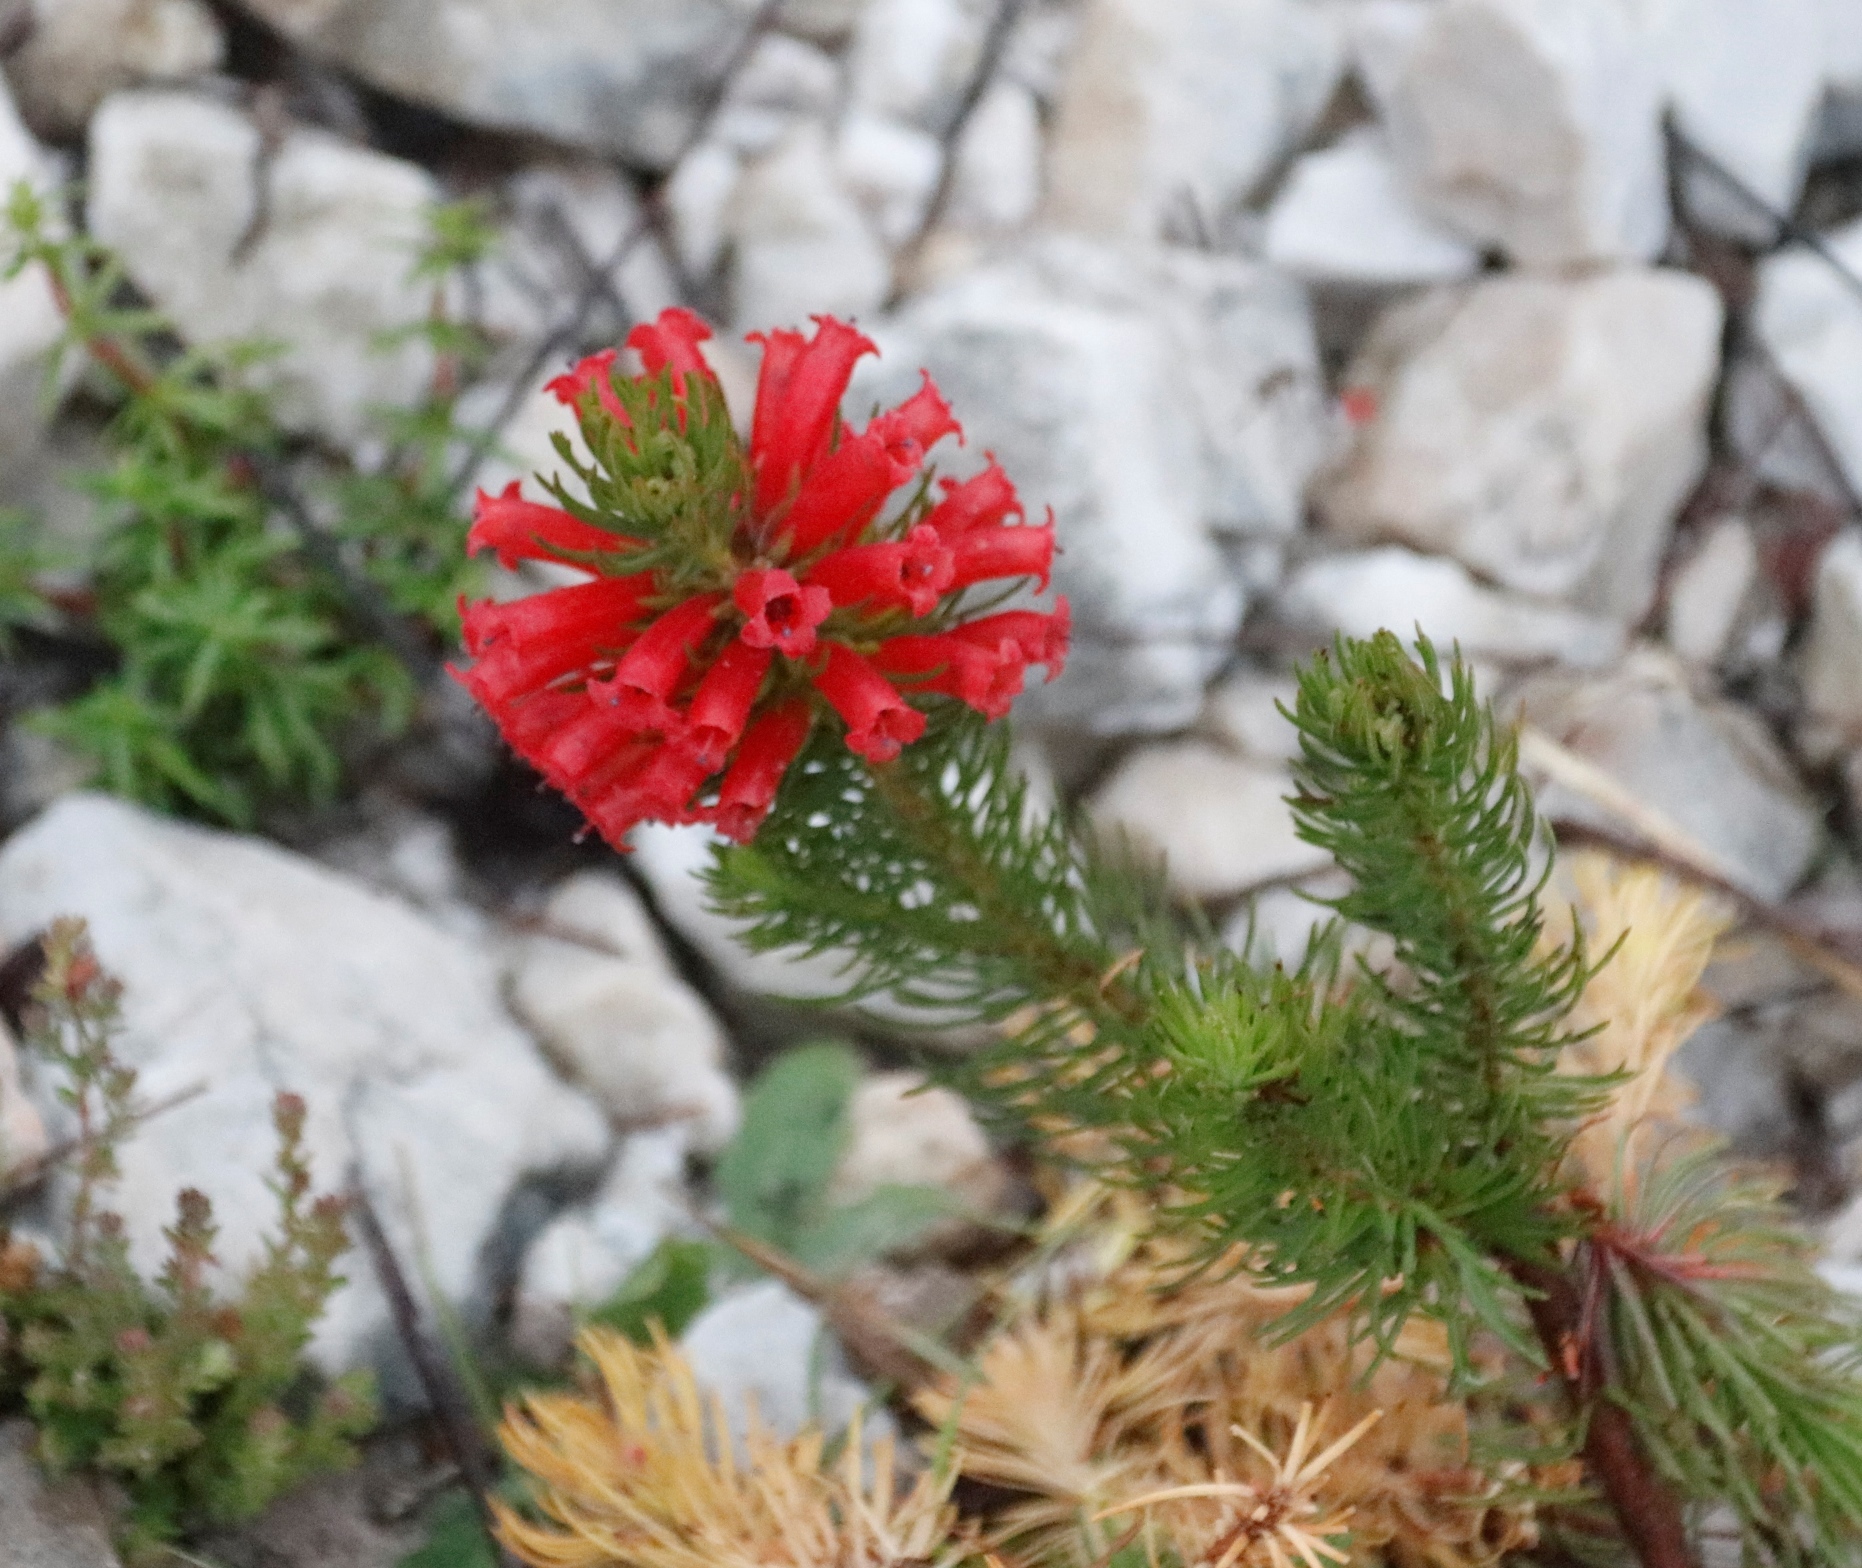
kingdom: Plantae
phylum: Tracheophyta
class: Magnoliopsida
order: Ericales
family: Ericaceae
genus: Erica
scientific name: Erica viscaria
